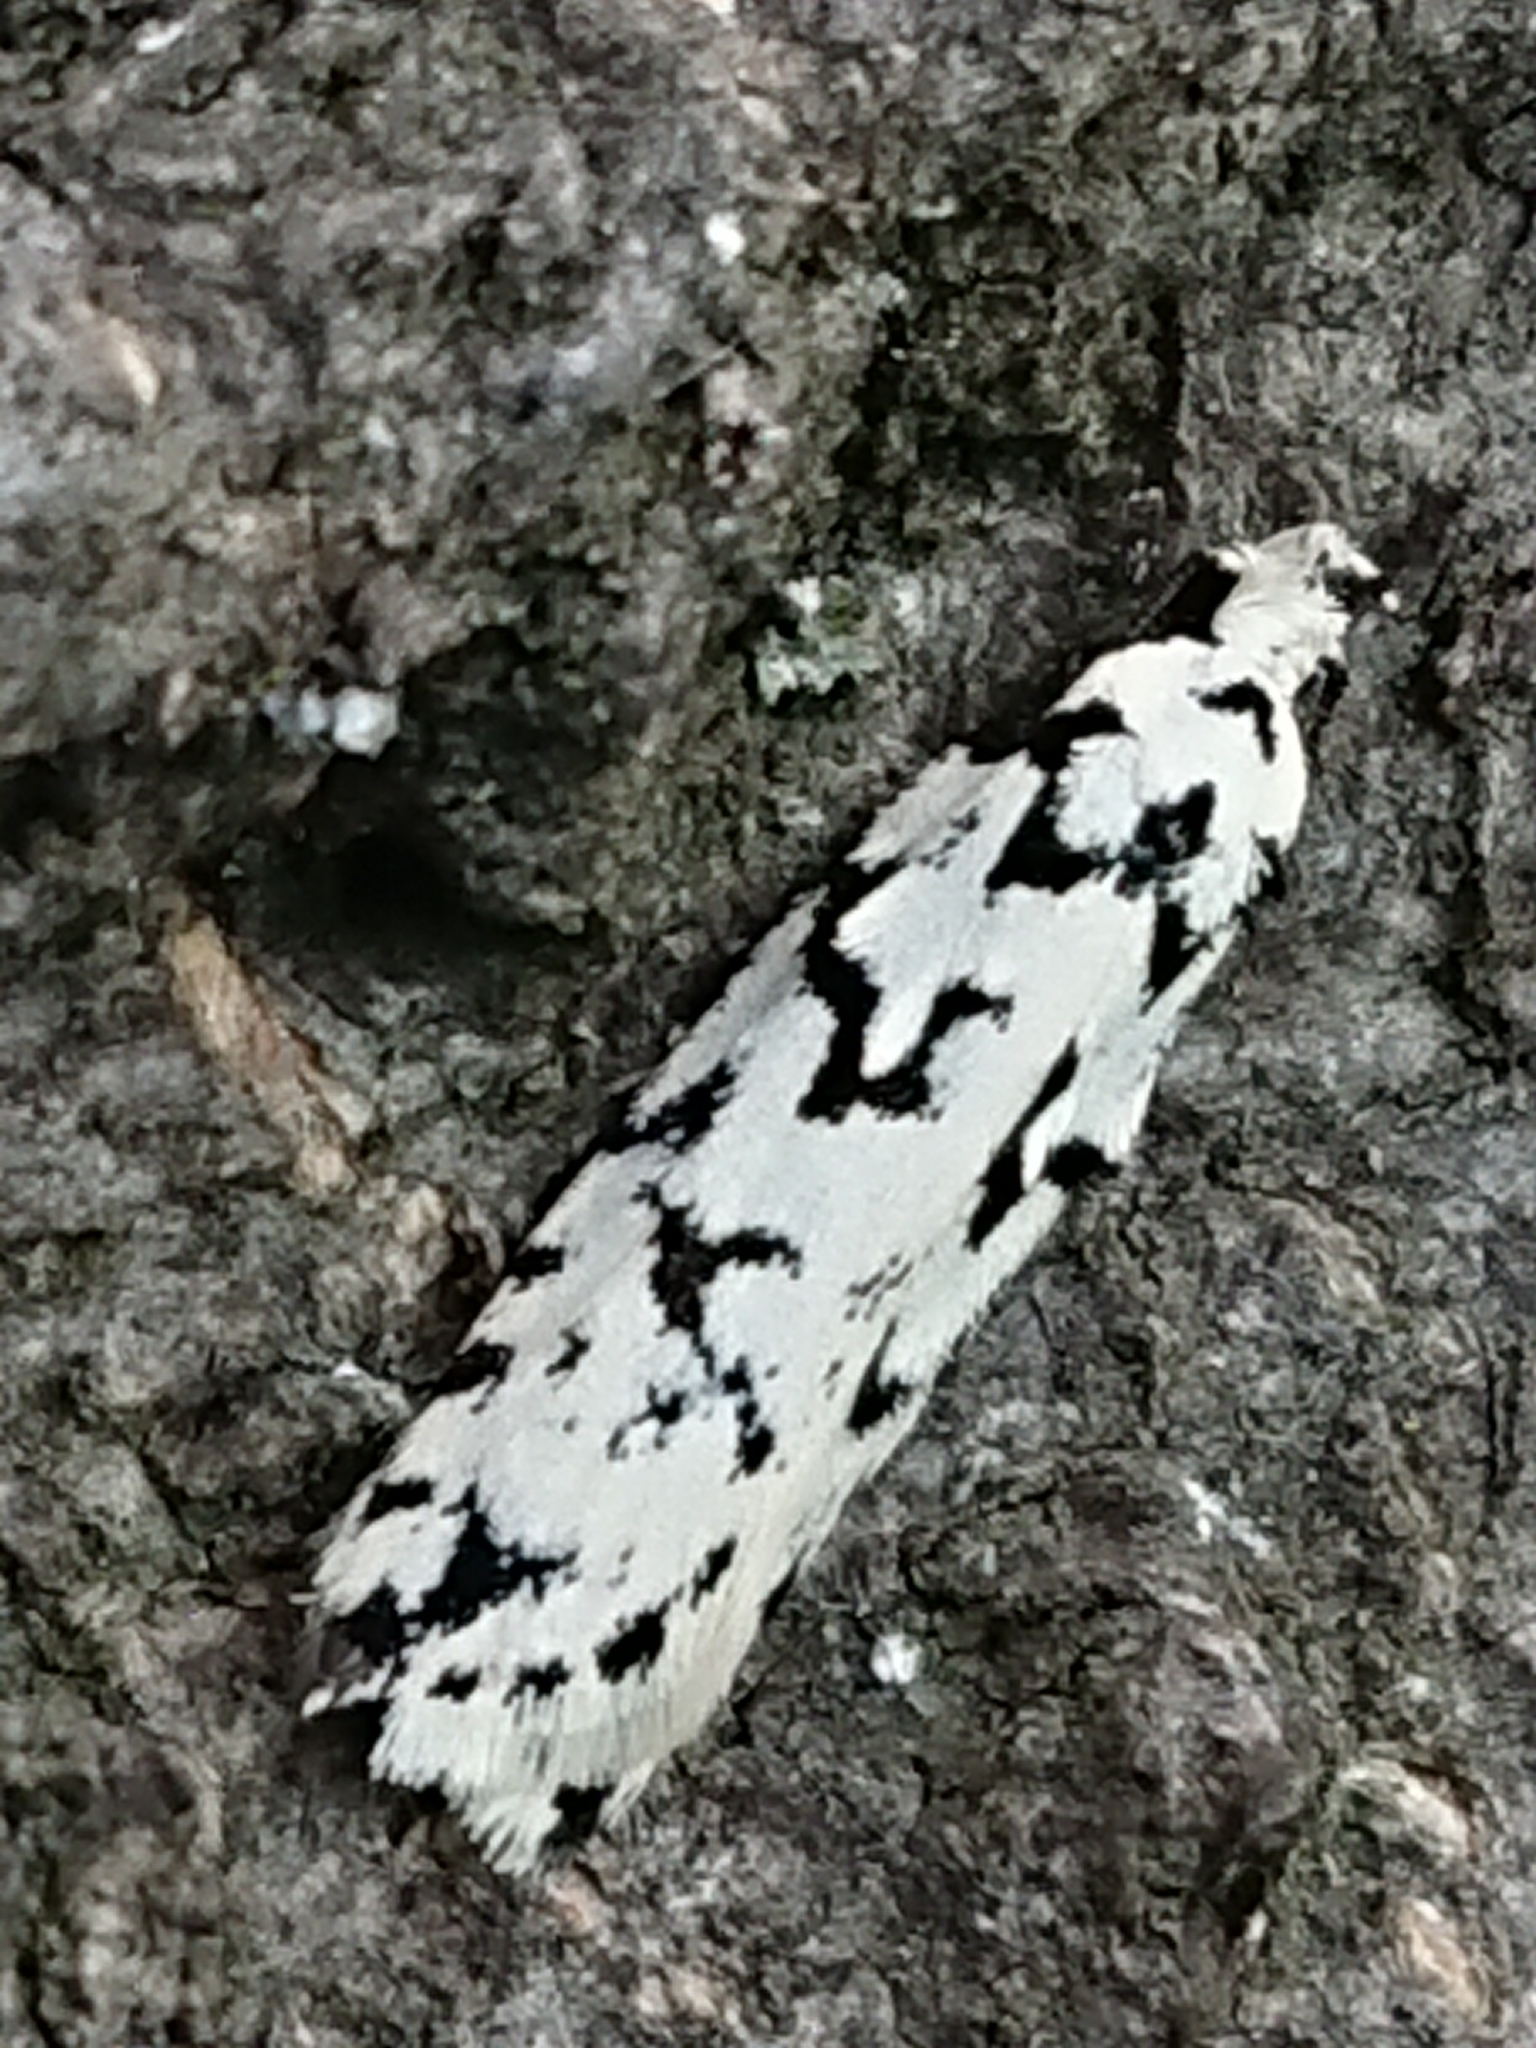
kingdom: Animalia
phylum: Arthropoda
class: Insecta
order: Lepidoptera
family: Oecophoridae
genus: Izatha
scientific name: Izatha katadiktya
